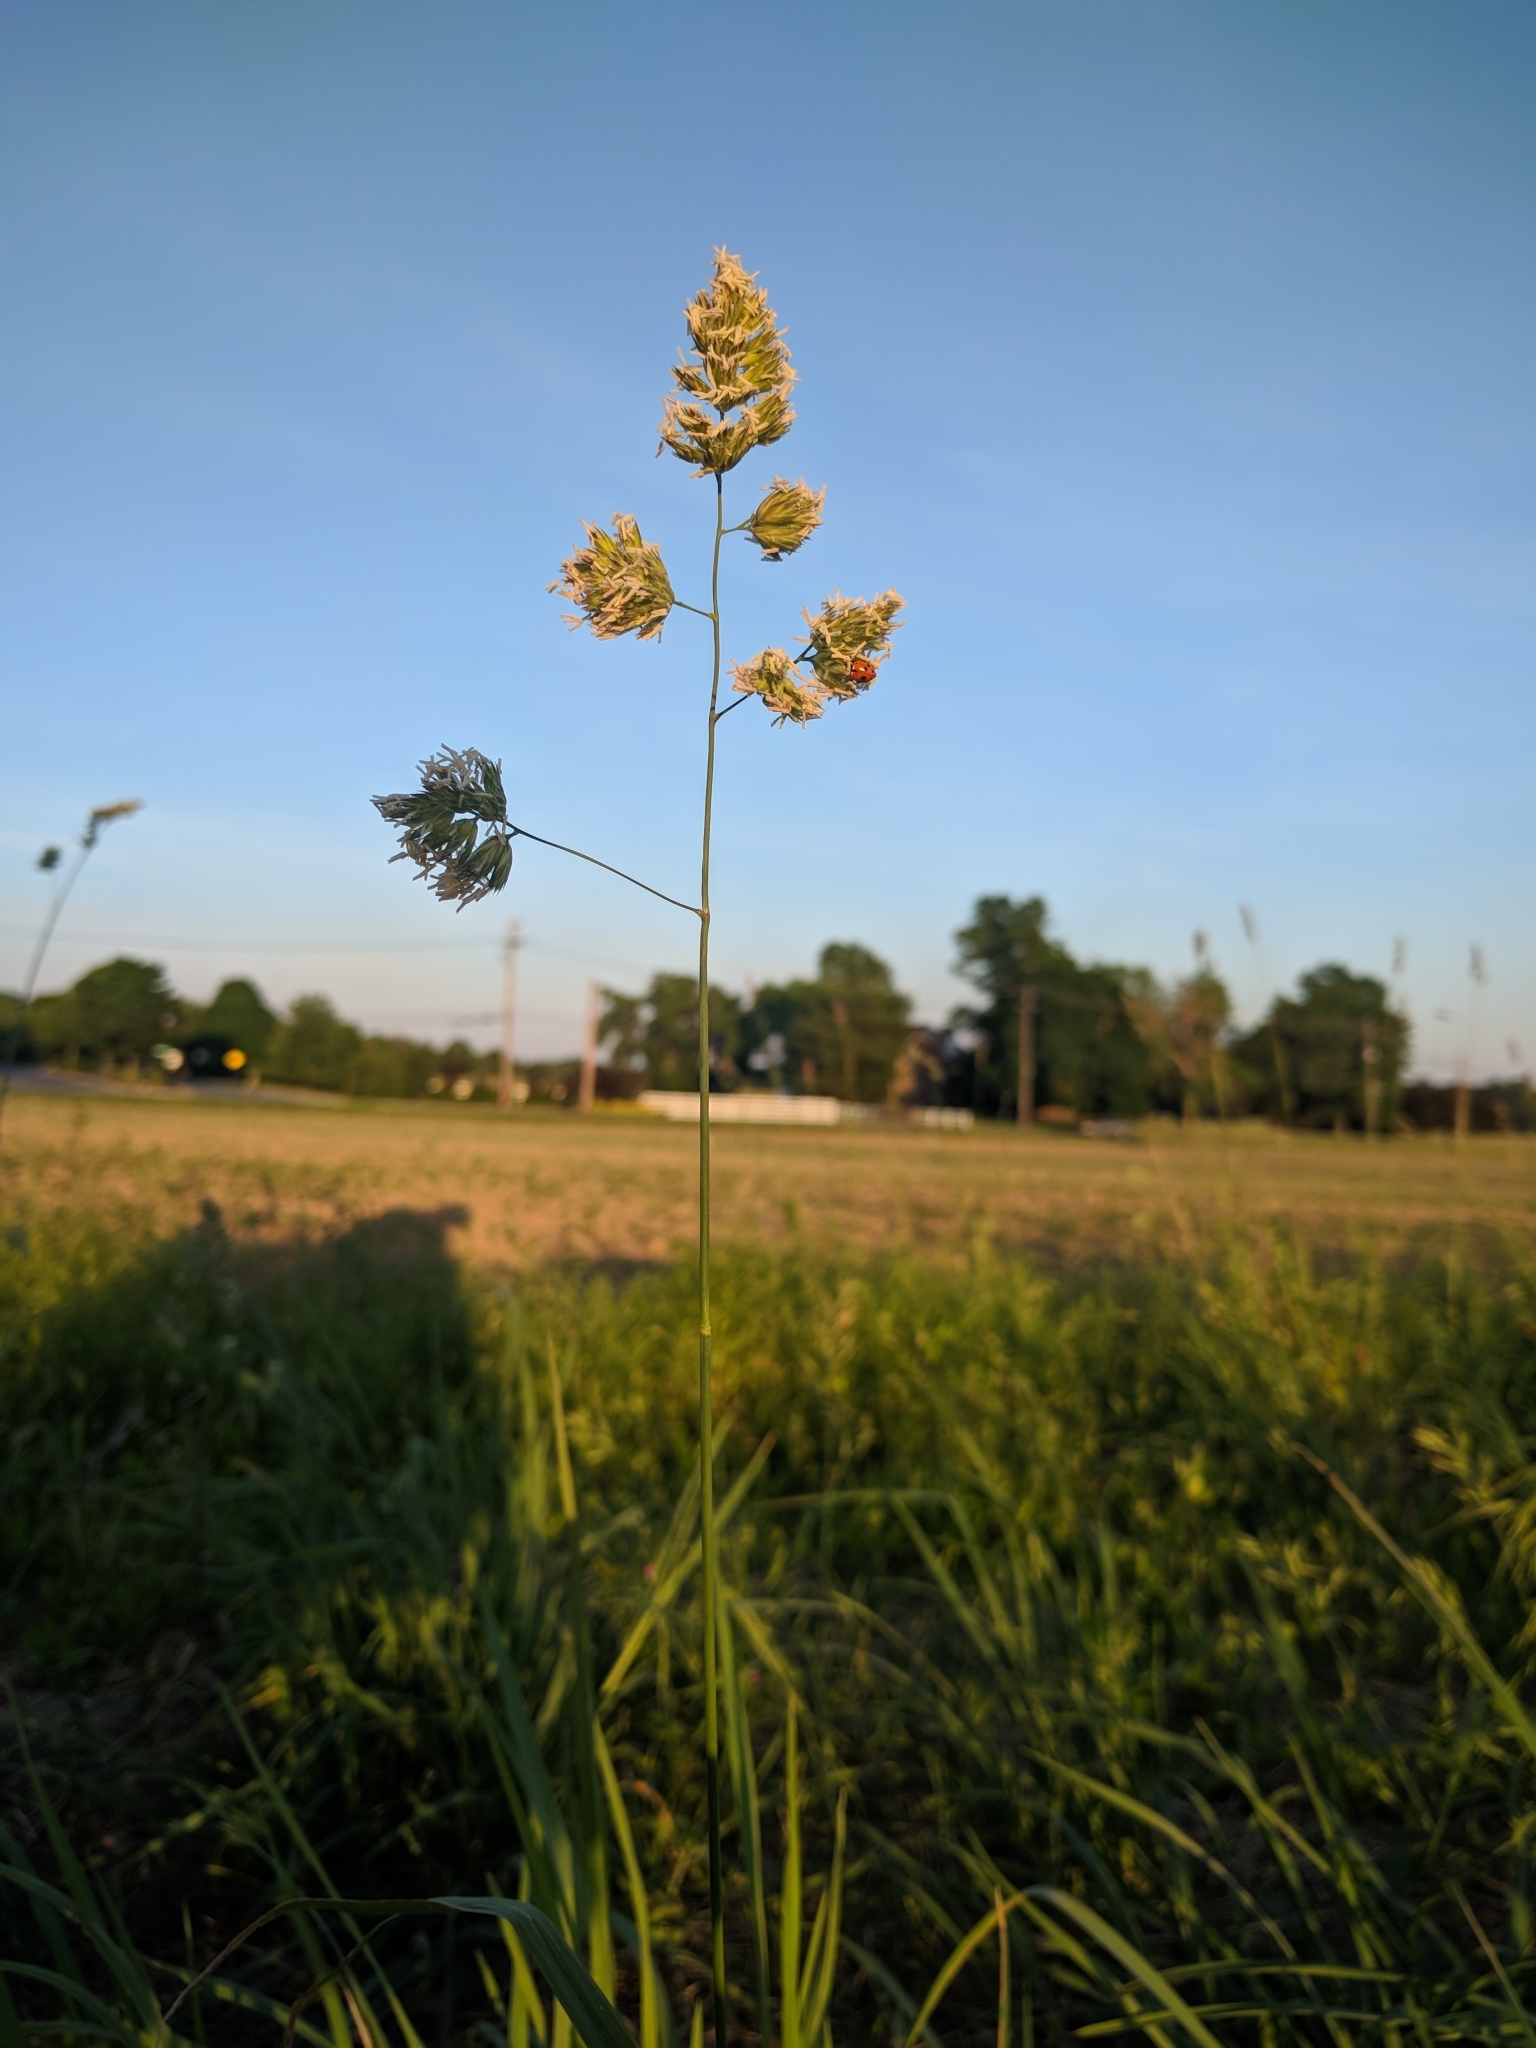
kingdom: Plantae
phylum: Tracheophyta
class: Liliopsida
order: Poales
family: Poaceae
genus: Dactylis
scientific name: Dactylis glomerata
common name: Orchardgrass
